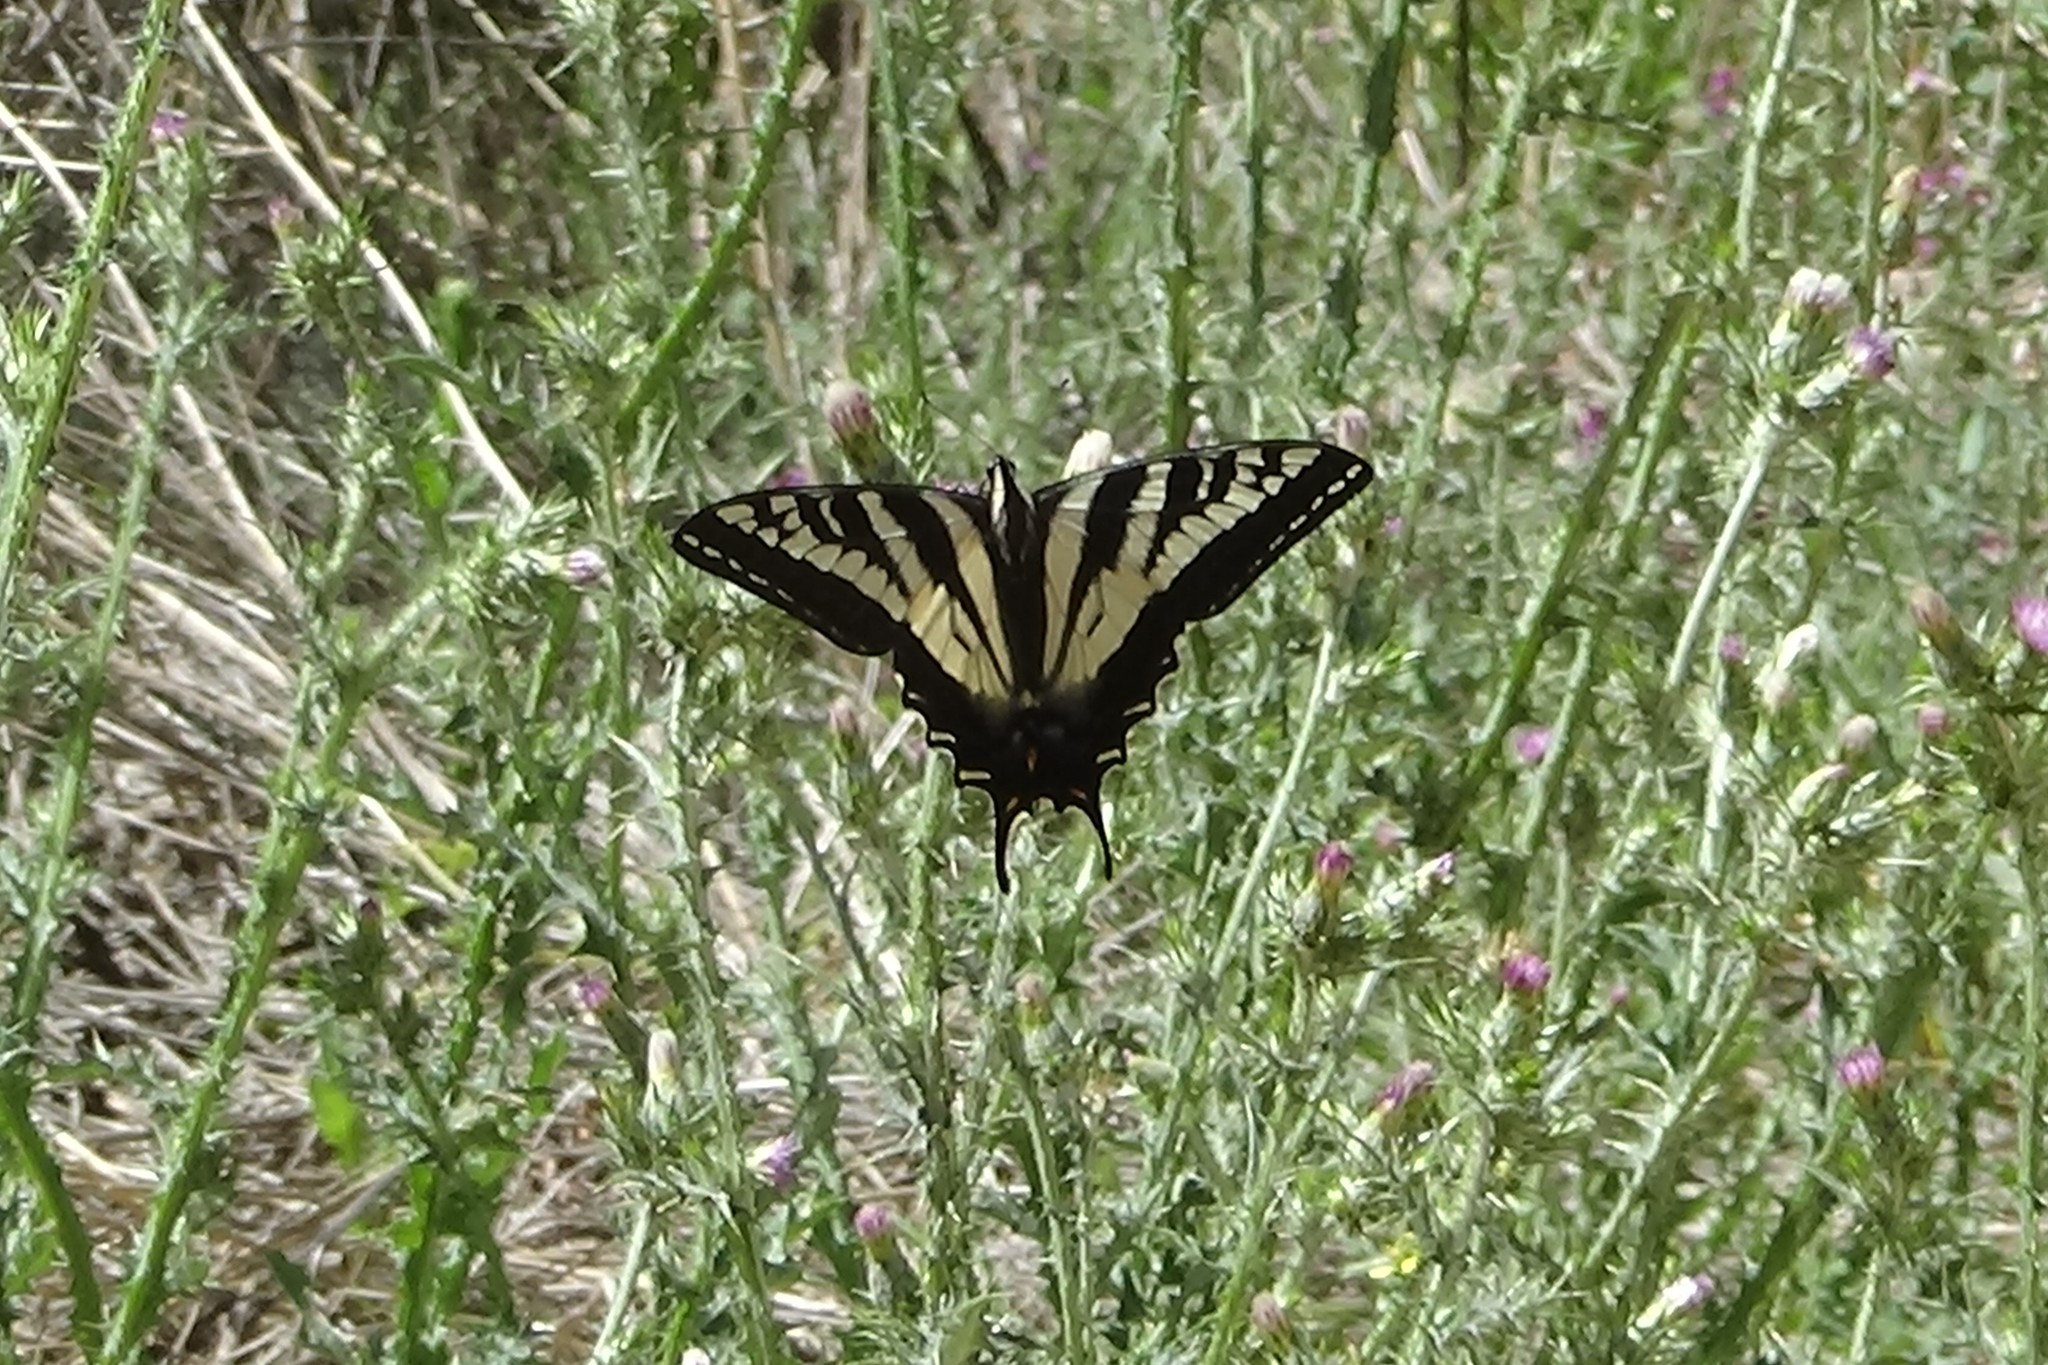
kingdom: Animalia
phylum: Arthropoda
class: Insecta
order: Lepidoptera
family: Papilionidae
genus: Papilio
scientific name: Papilio eurymedon
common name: Pale tiger swallowtail
